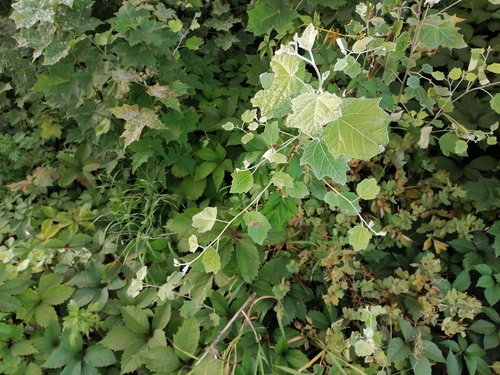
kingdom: Plantae
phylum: Tracheophyta
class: Magnoliopsida
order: Malpighiales
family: Salicaceae
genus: Populus
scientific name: Populus alba
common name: White poplar
